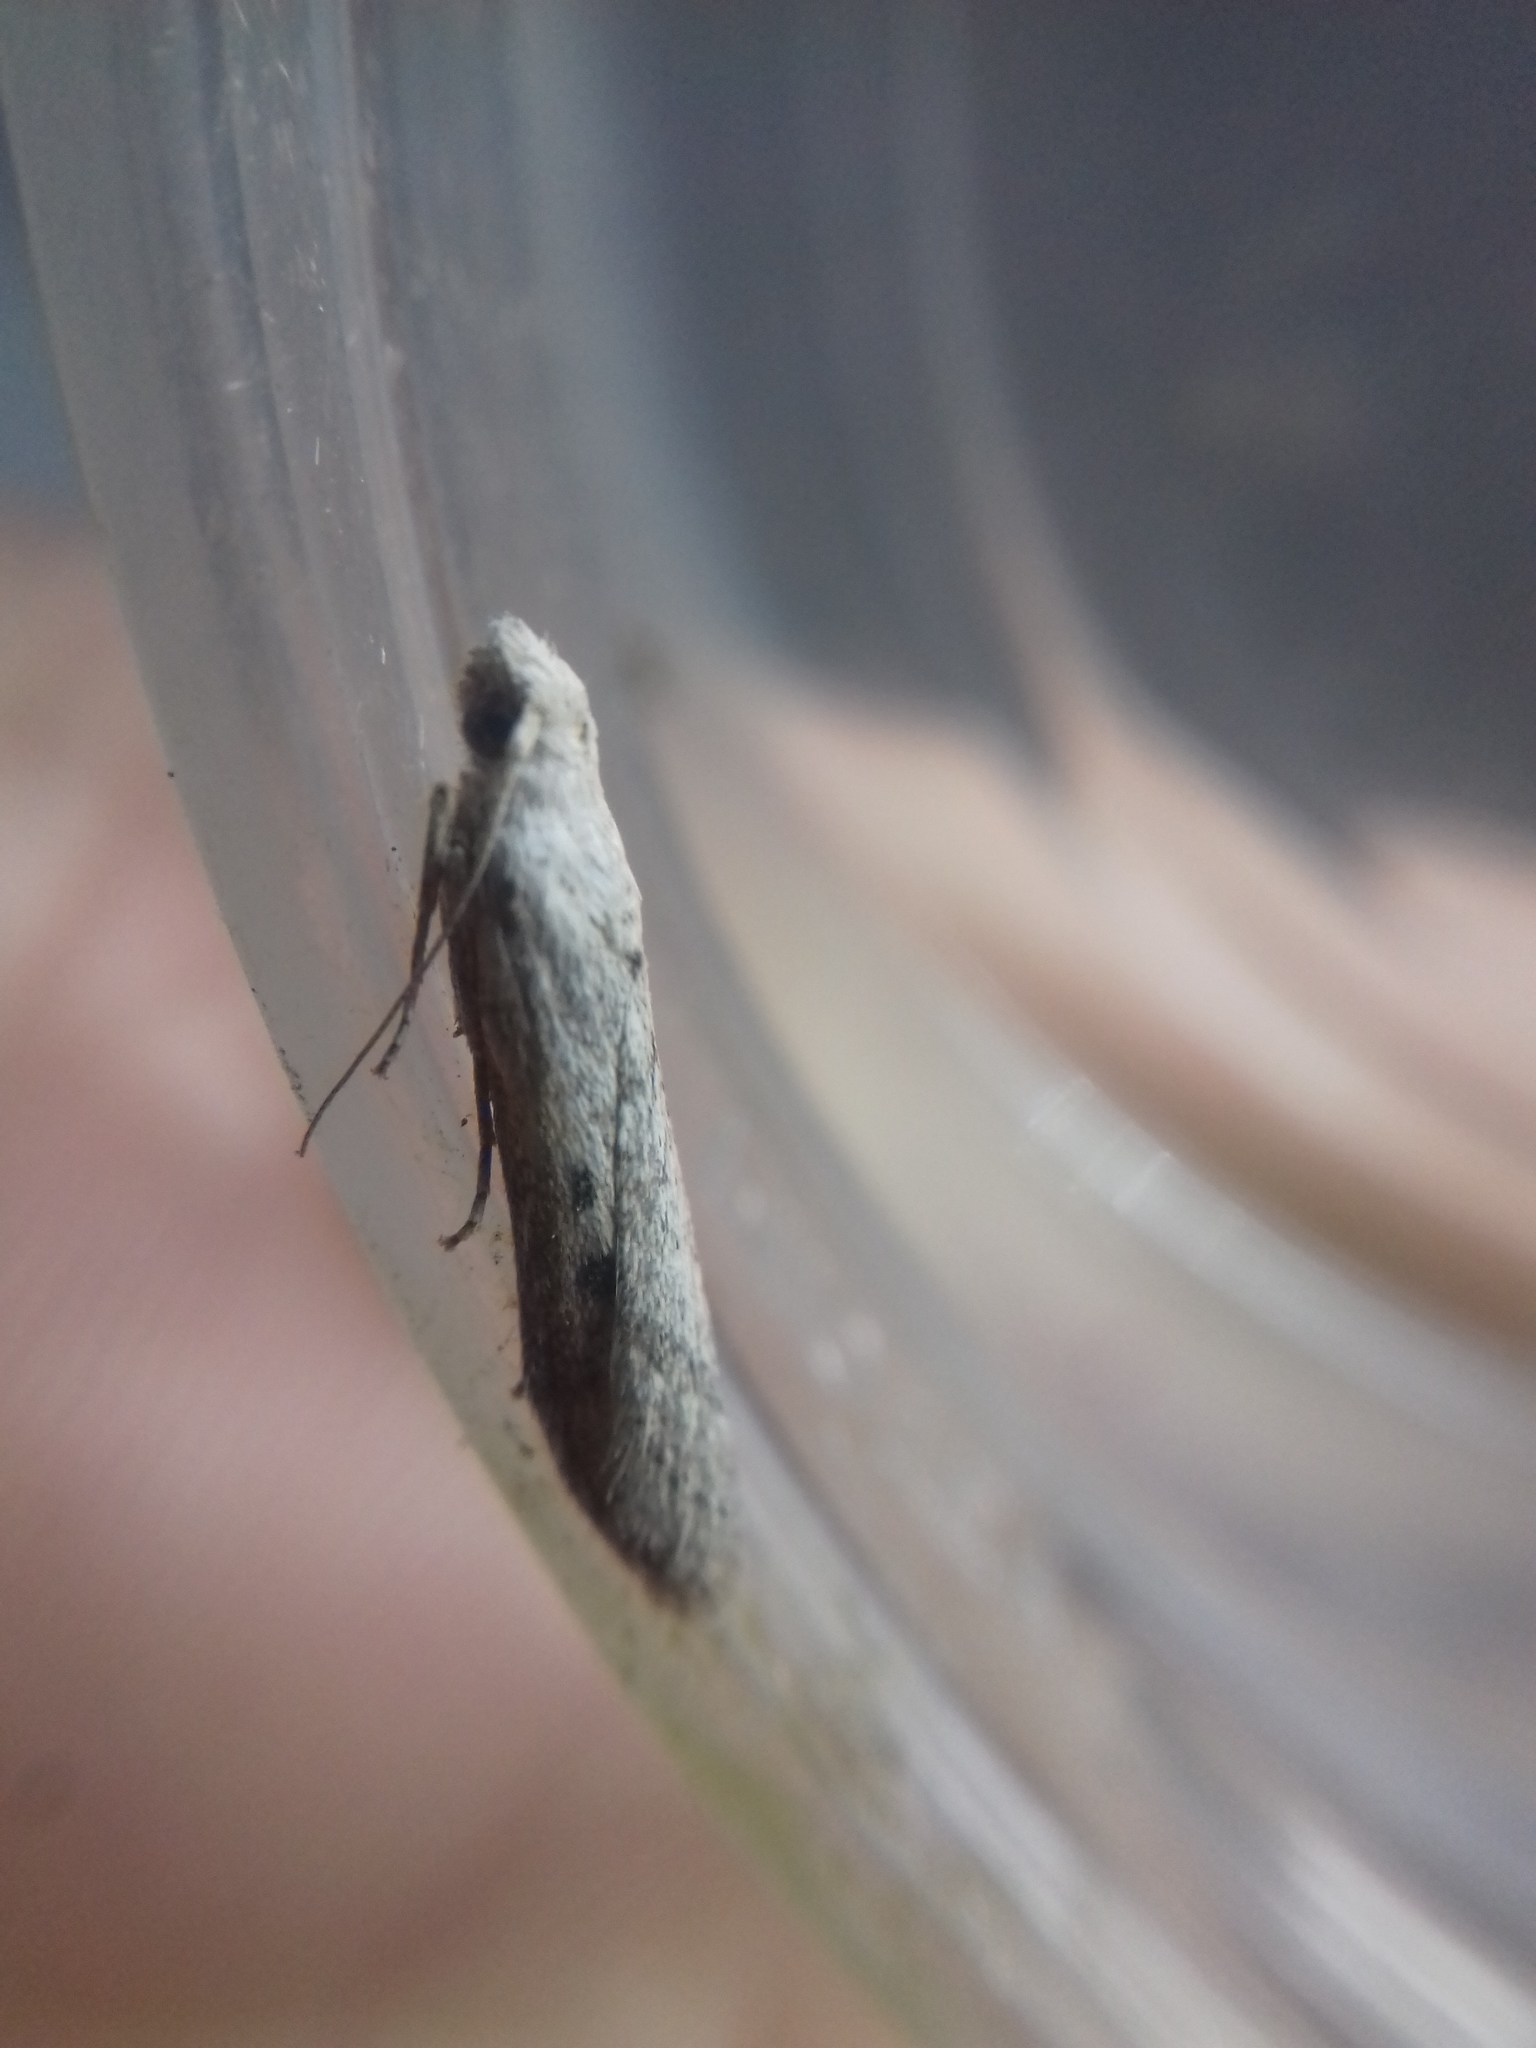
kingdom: Animalia
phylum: Arthropoda
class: Insecta
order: Lepidoptera
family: Pyralidae
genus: Lamoria
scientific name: Lamoria anella
